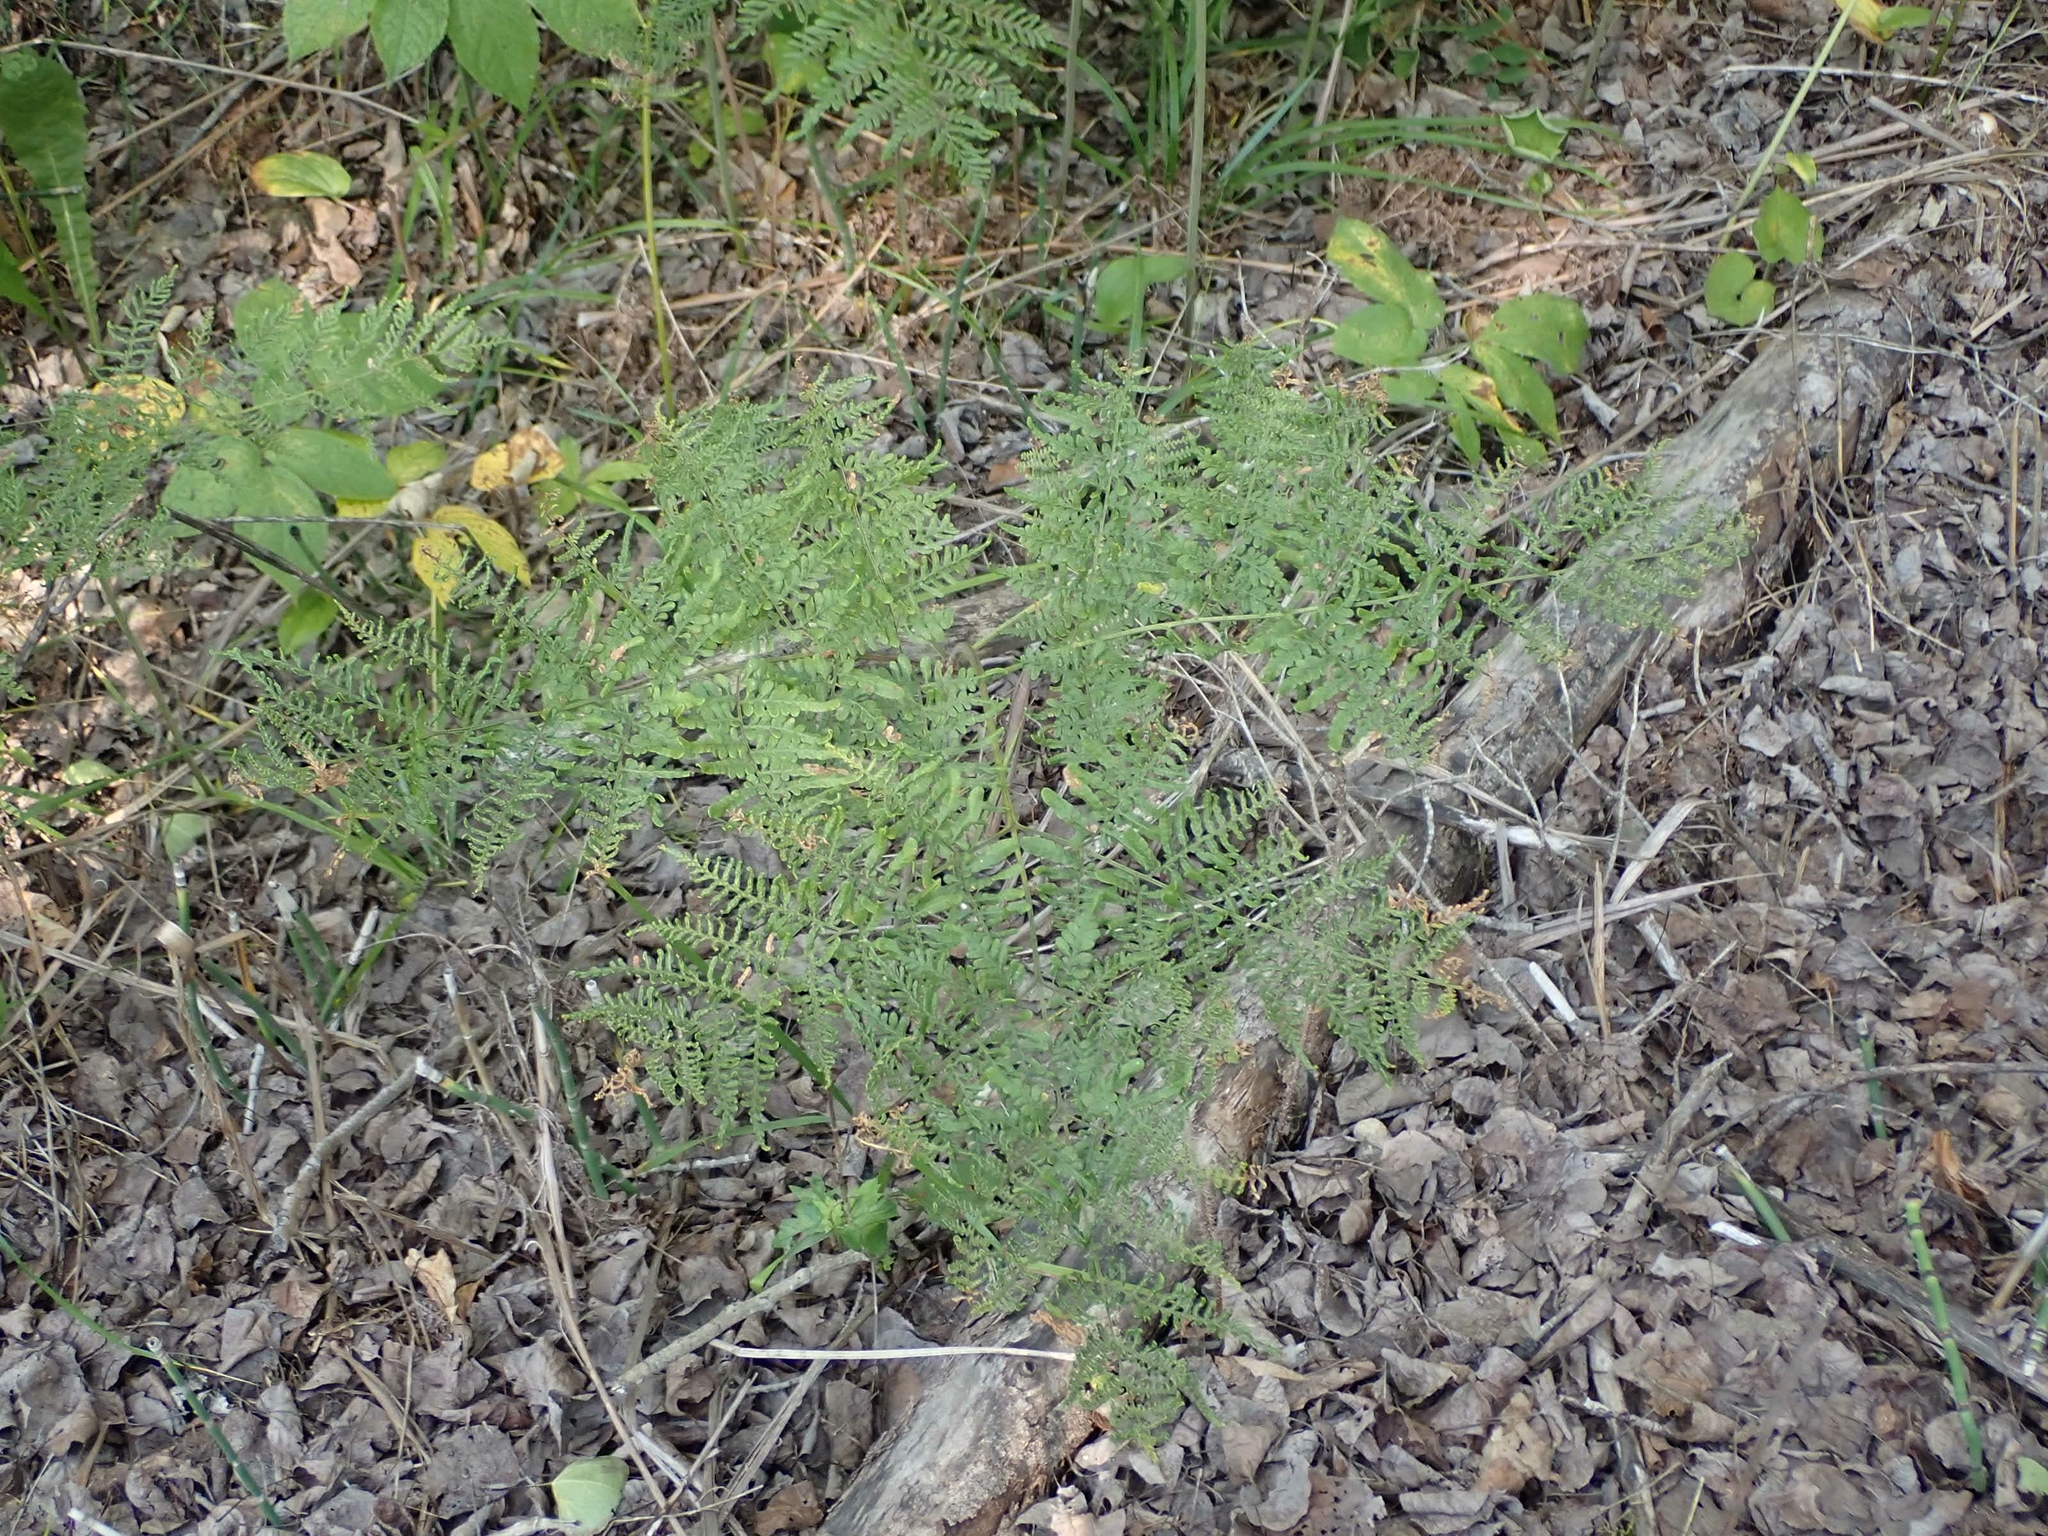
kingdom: Plantae
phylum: Tracheophyta
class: Polypodiopsida
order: Polypodiales
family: Dennstaedtiaceae
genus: Pteridium
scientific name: Pteridium aquilinum
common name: Bracken
